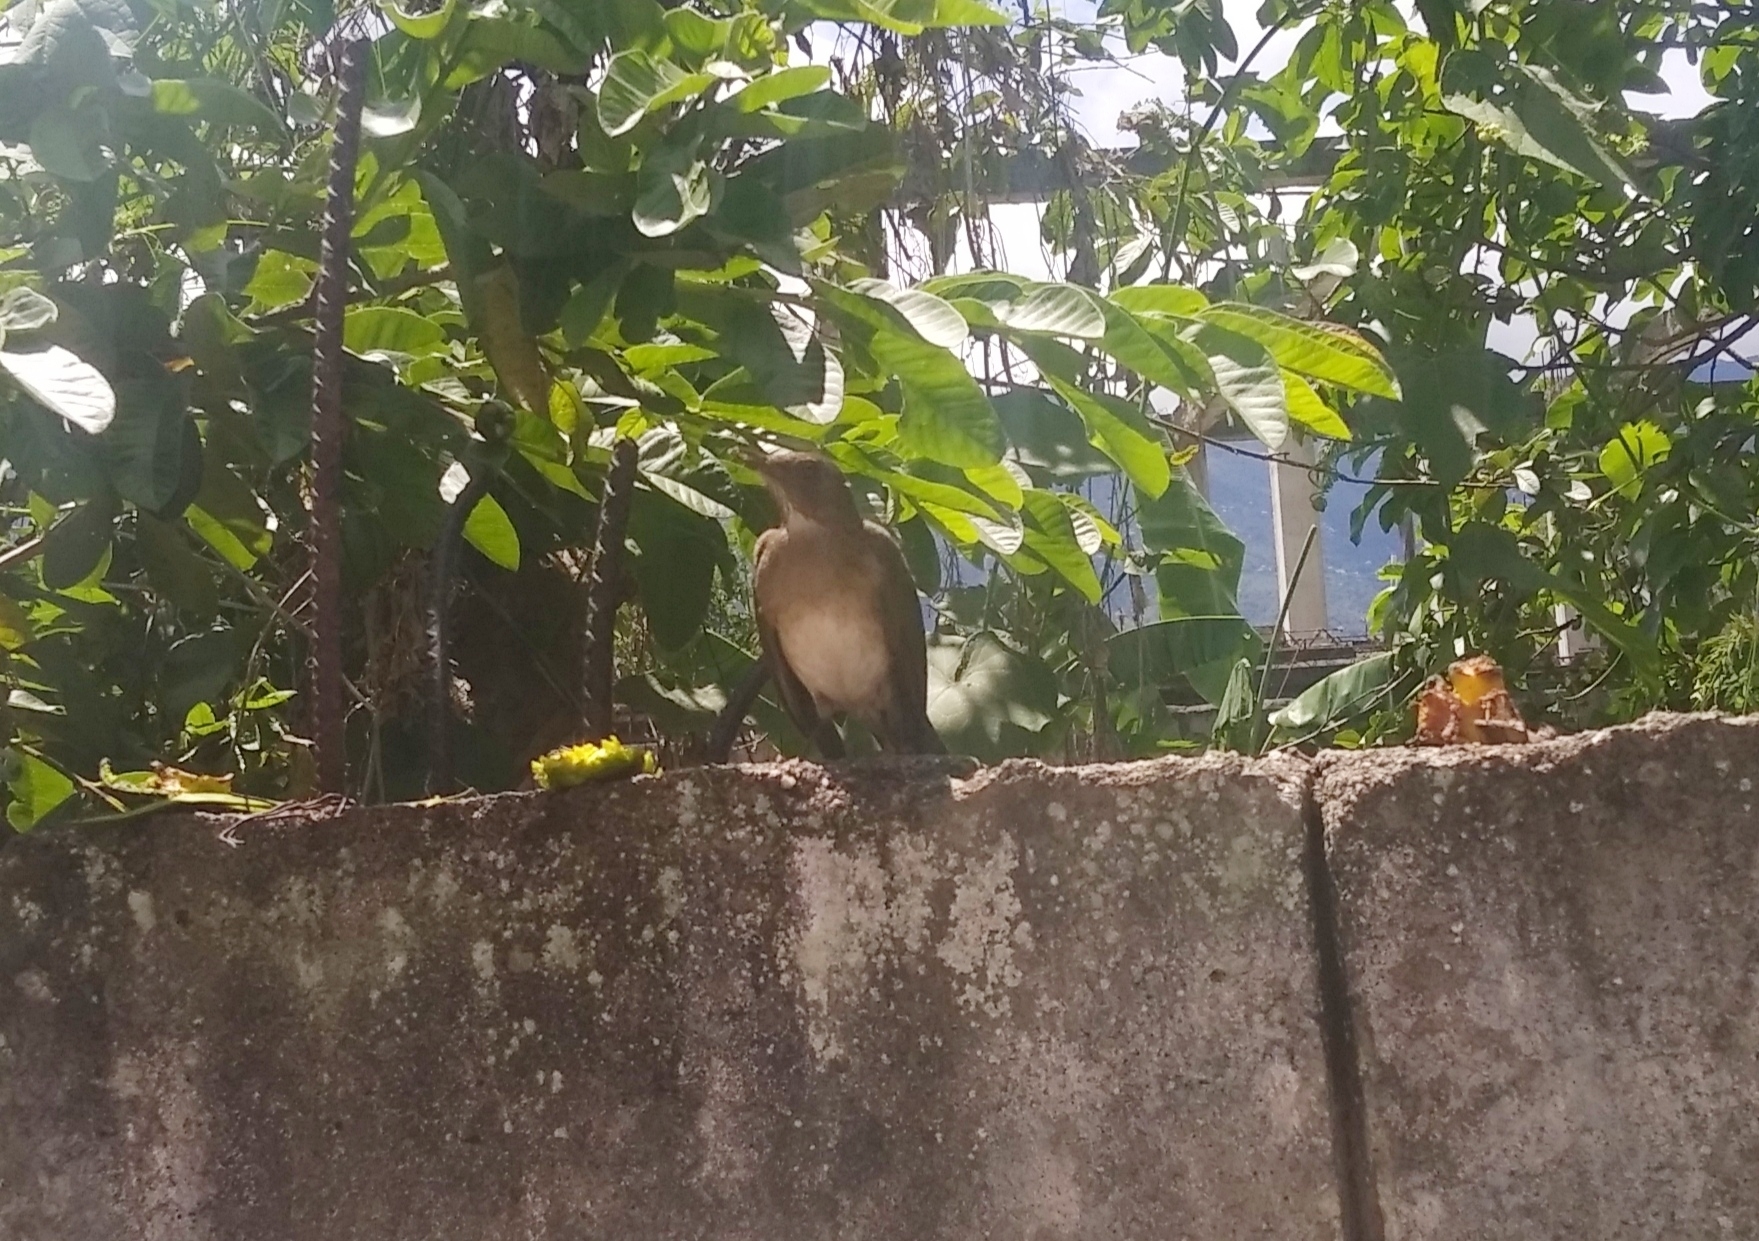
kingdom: Animalia
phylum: Chordata
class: Aves
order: Passeriformes
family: Turdidae
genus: Turdus
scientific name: Turdus ignobilis
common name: Black-billed thrush
